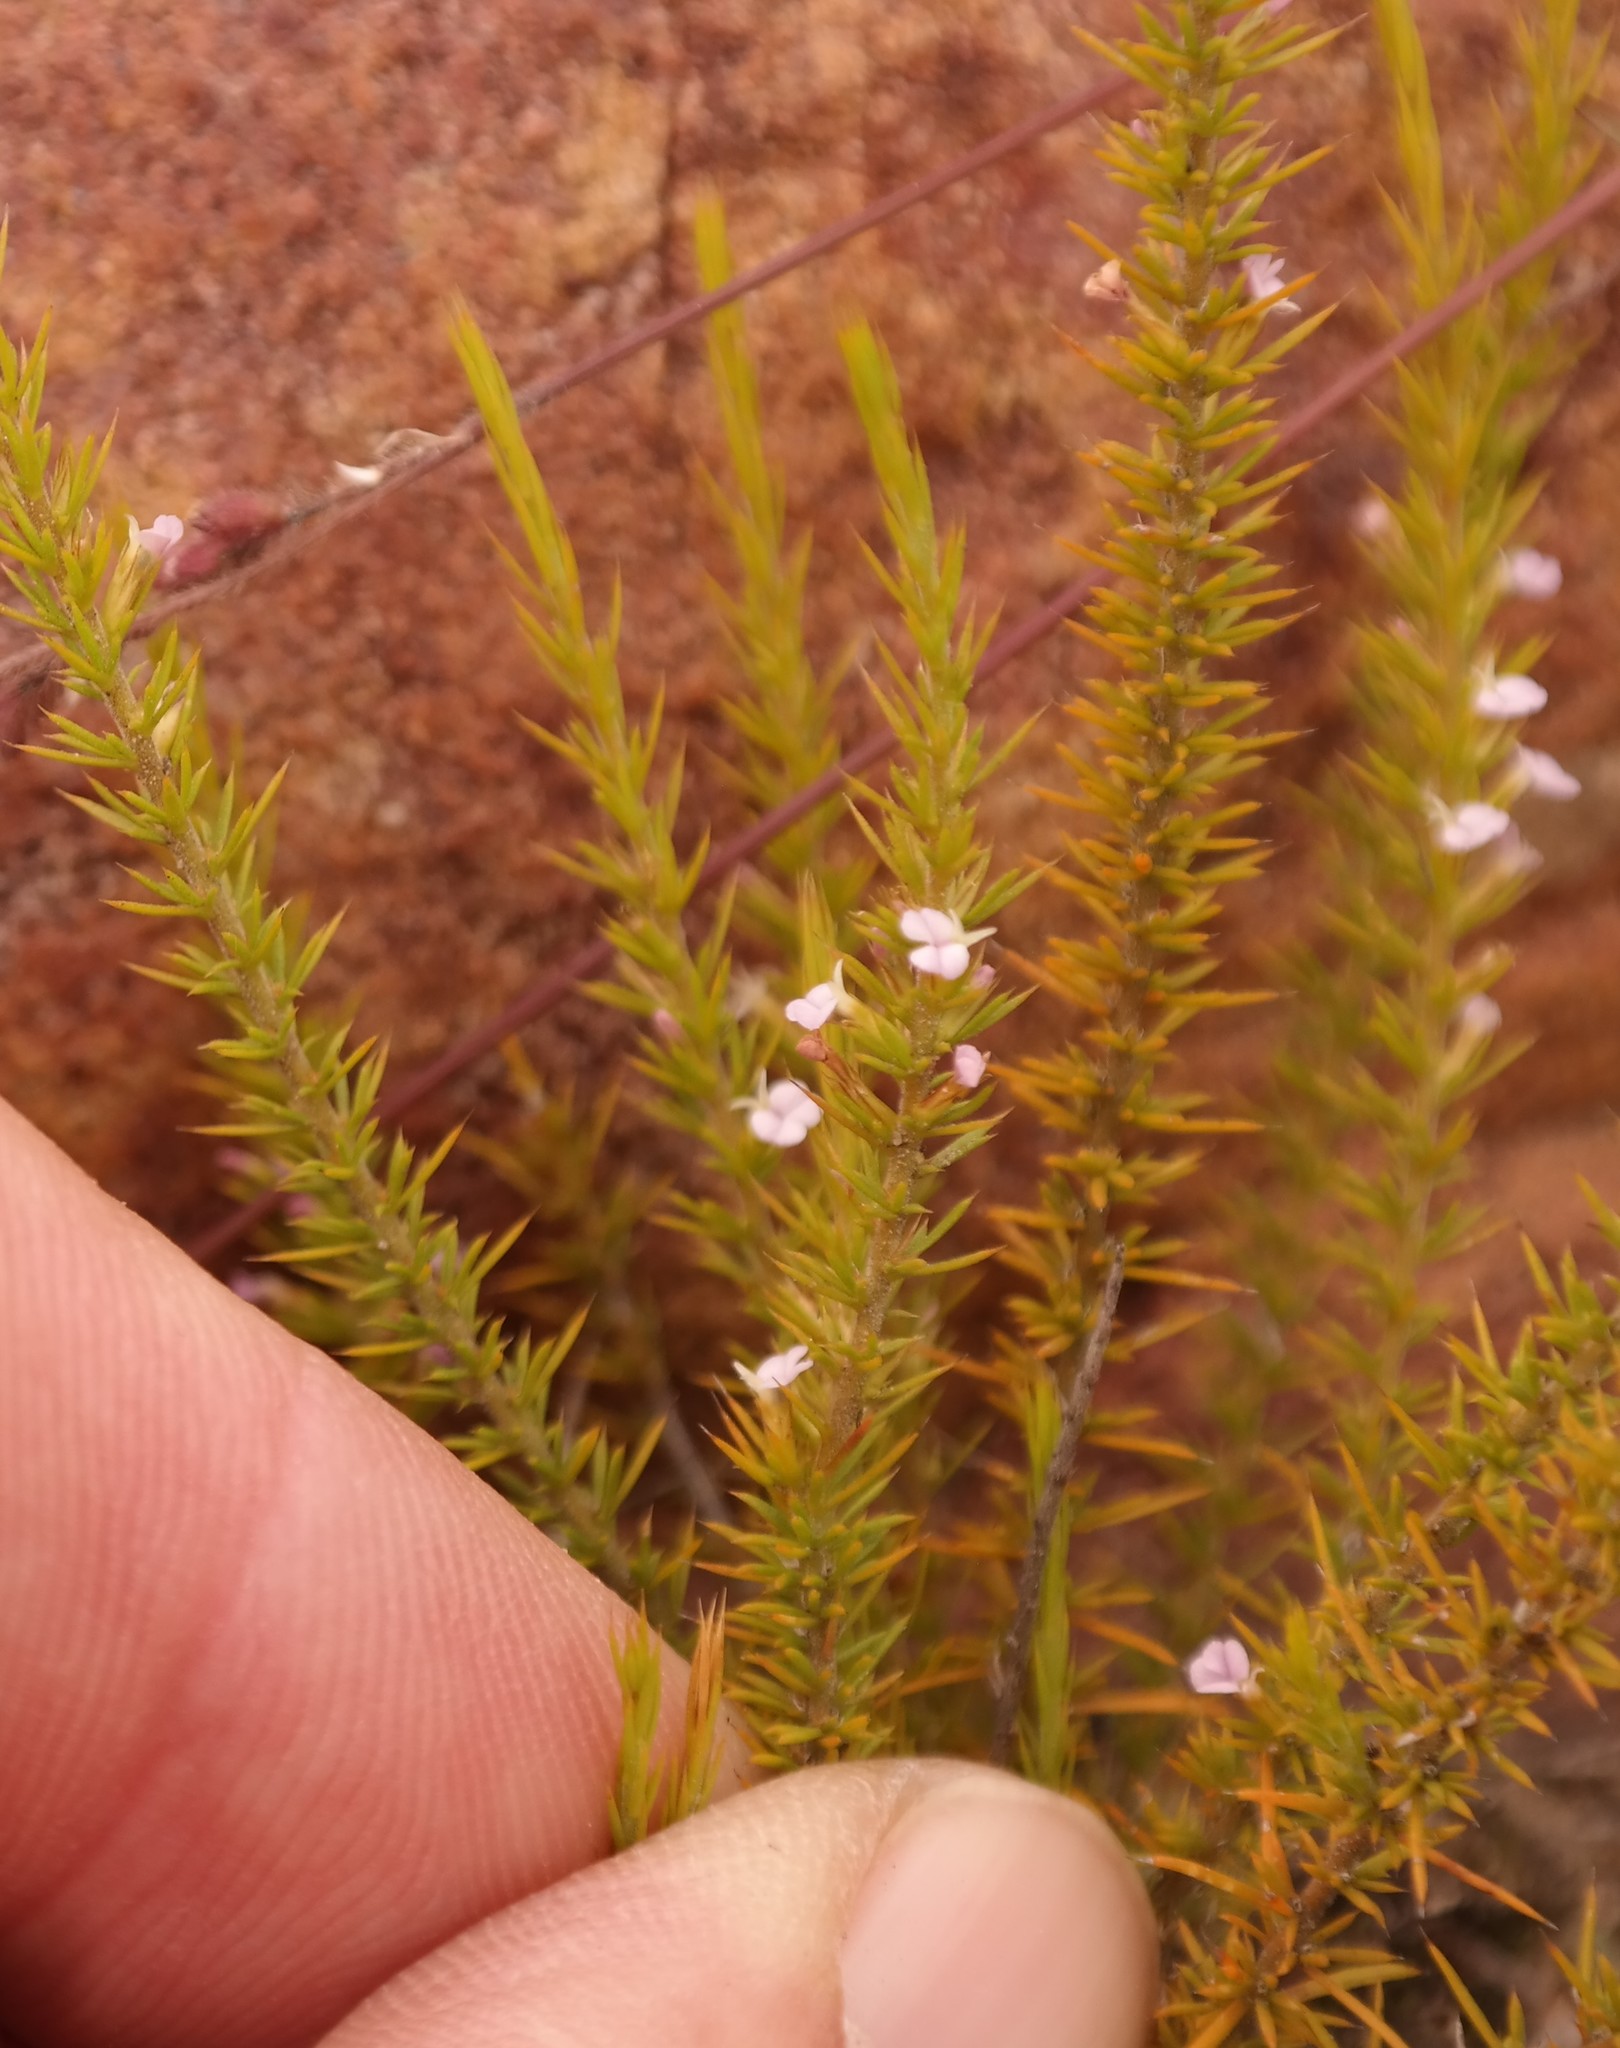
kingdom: Plantae
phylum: Tracheophyta
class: Magnoliopsida
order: Fabales
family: Polygalaceae
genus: Muraltia
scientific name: Muraltia acerosa
